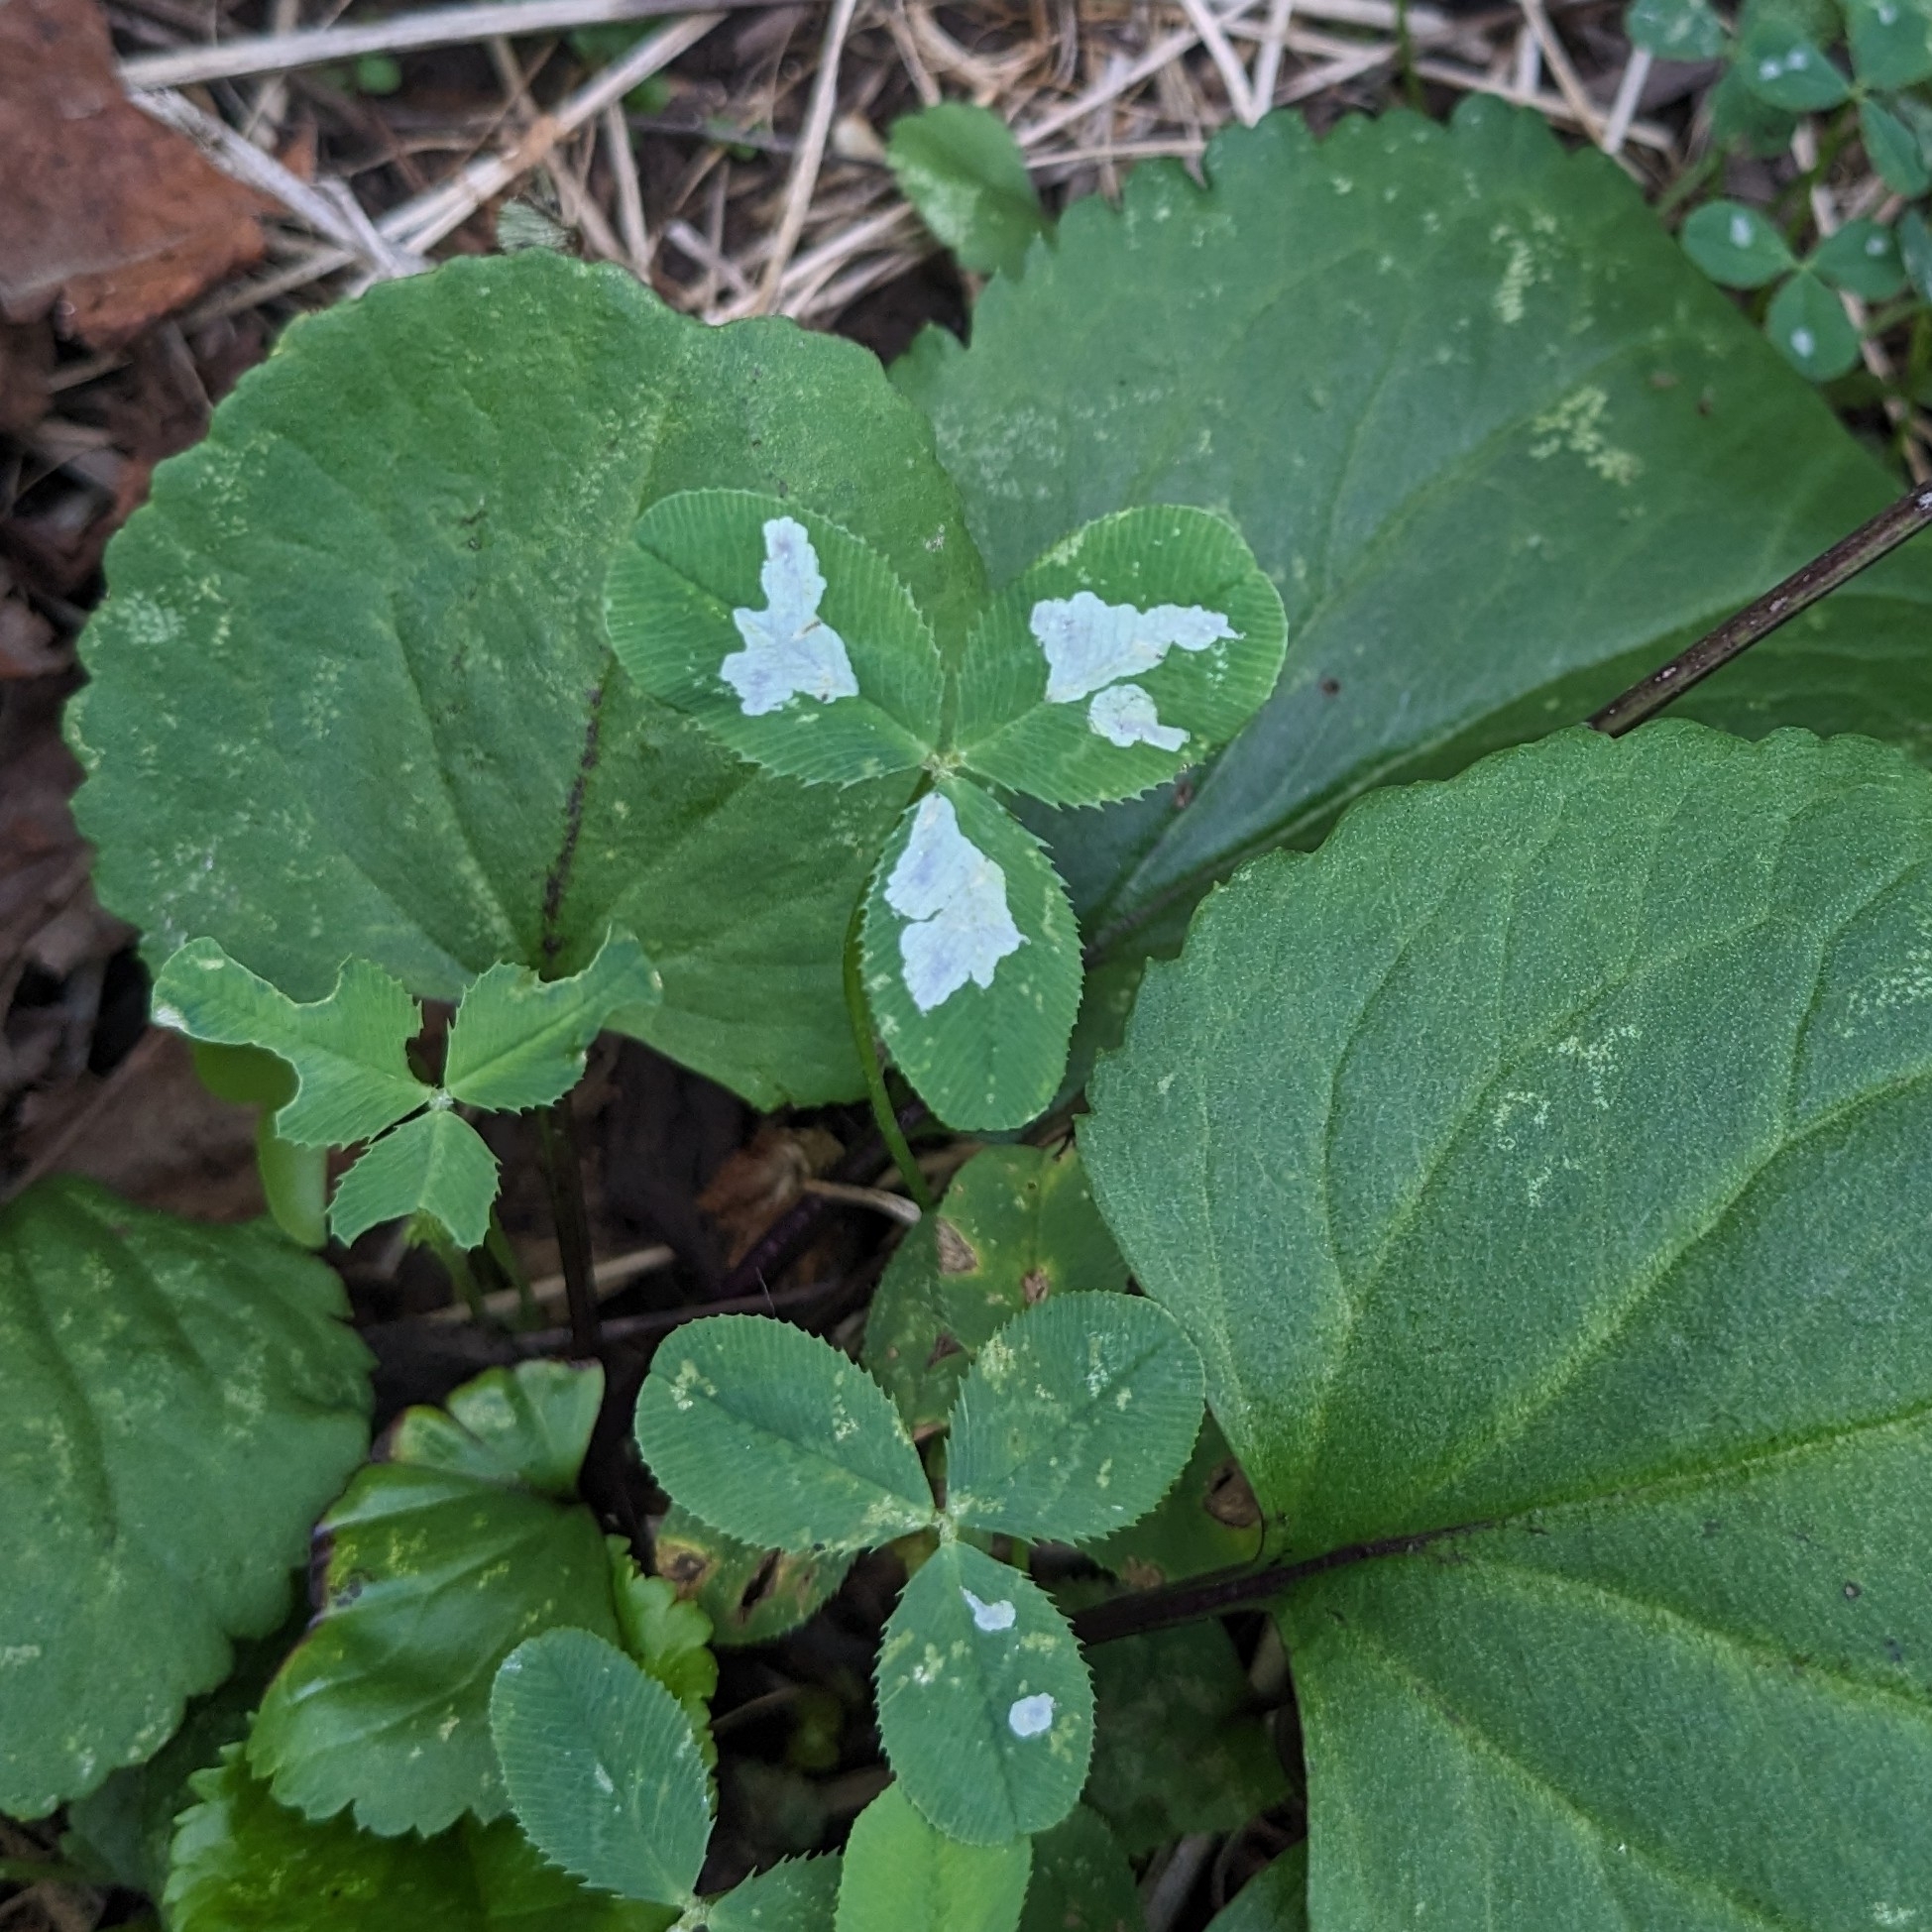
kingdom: Animalia
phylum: Arthropoda
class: Insecta
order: Lepidoptera
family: Gracillariidae
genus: Porphyrosela
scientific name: Porphyrosela minuta
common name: Leaf miner moth
